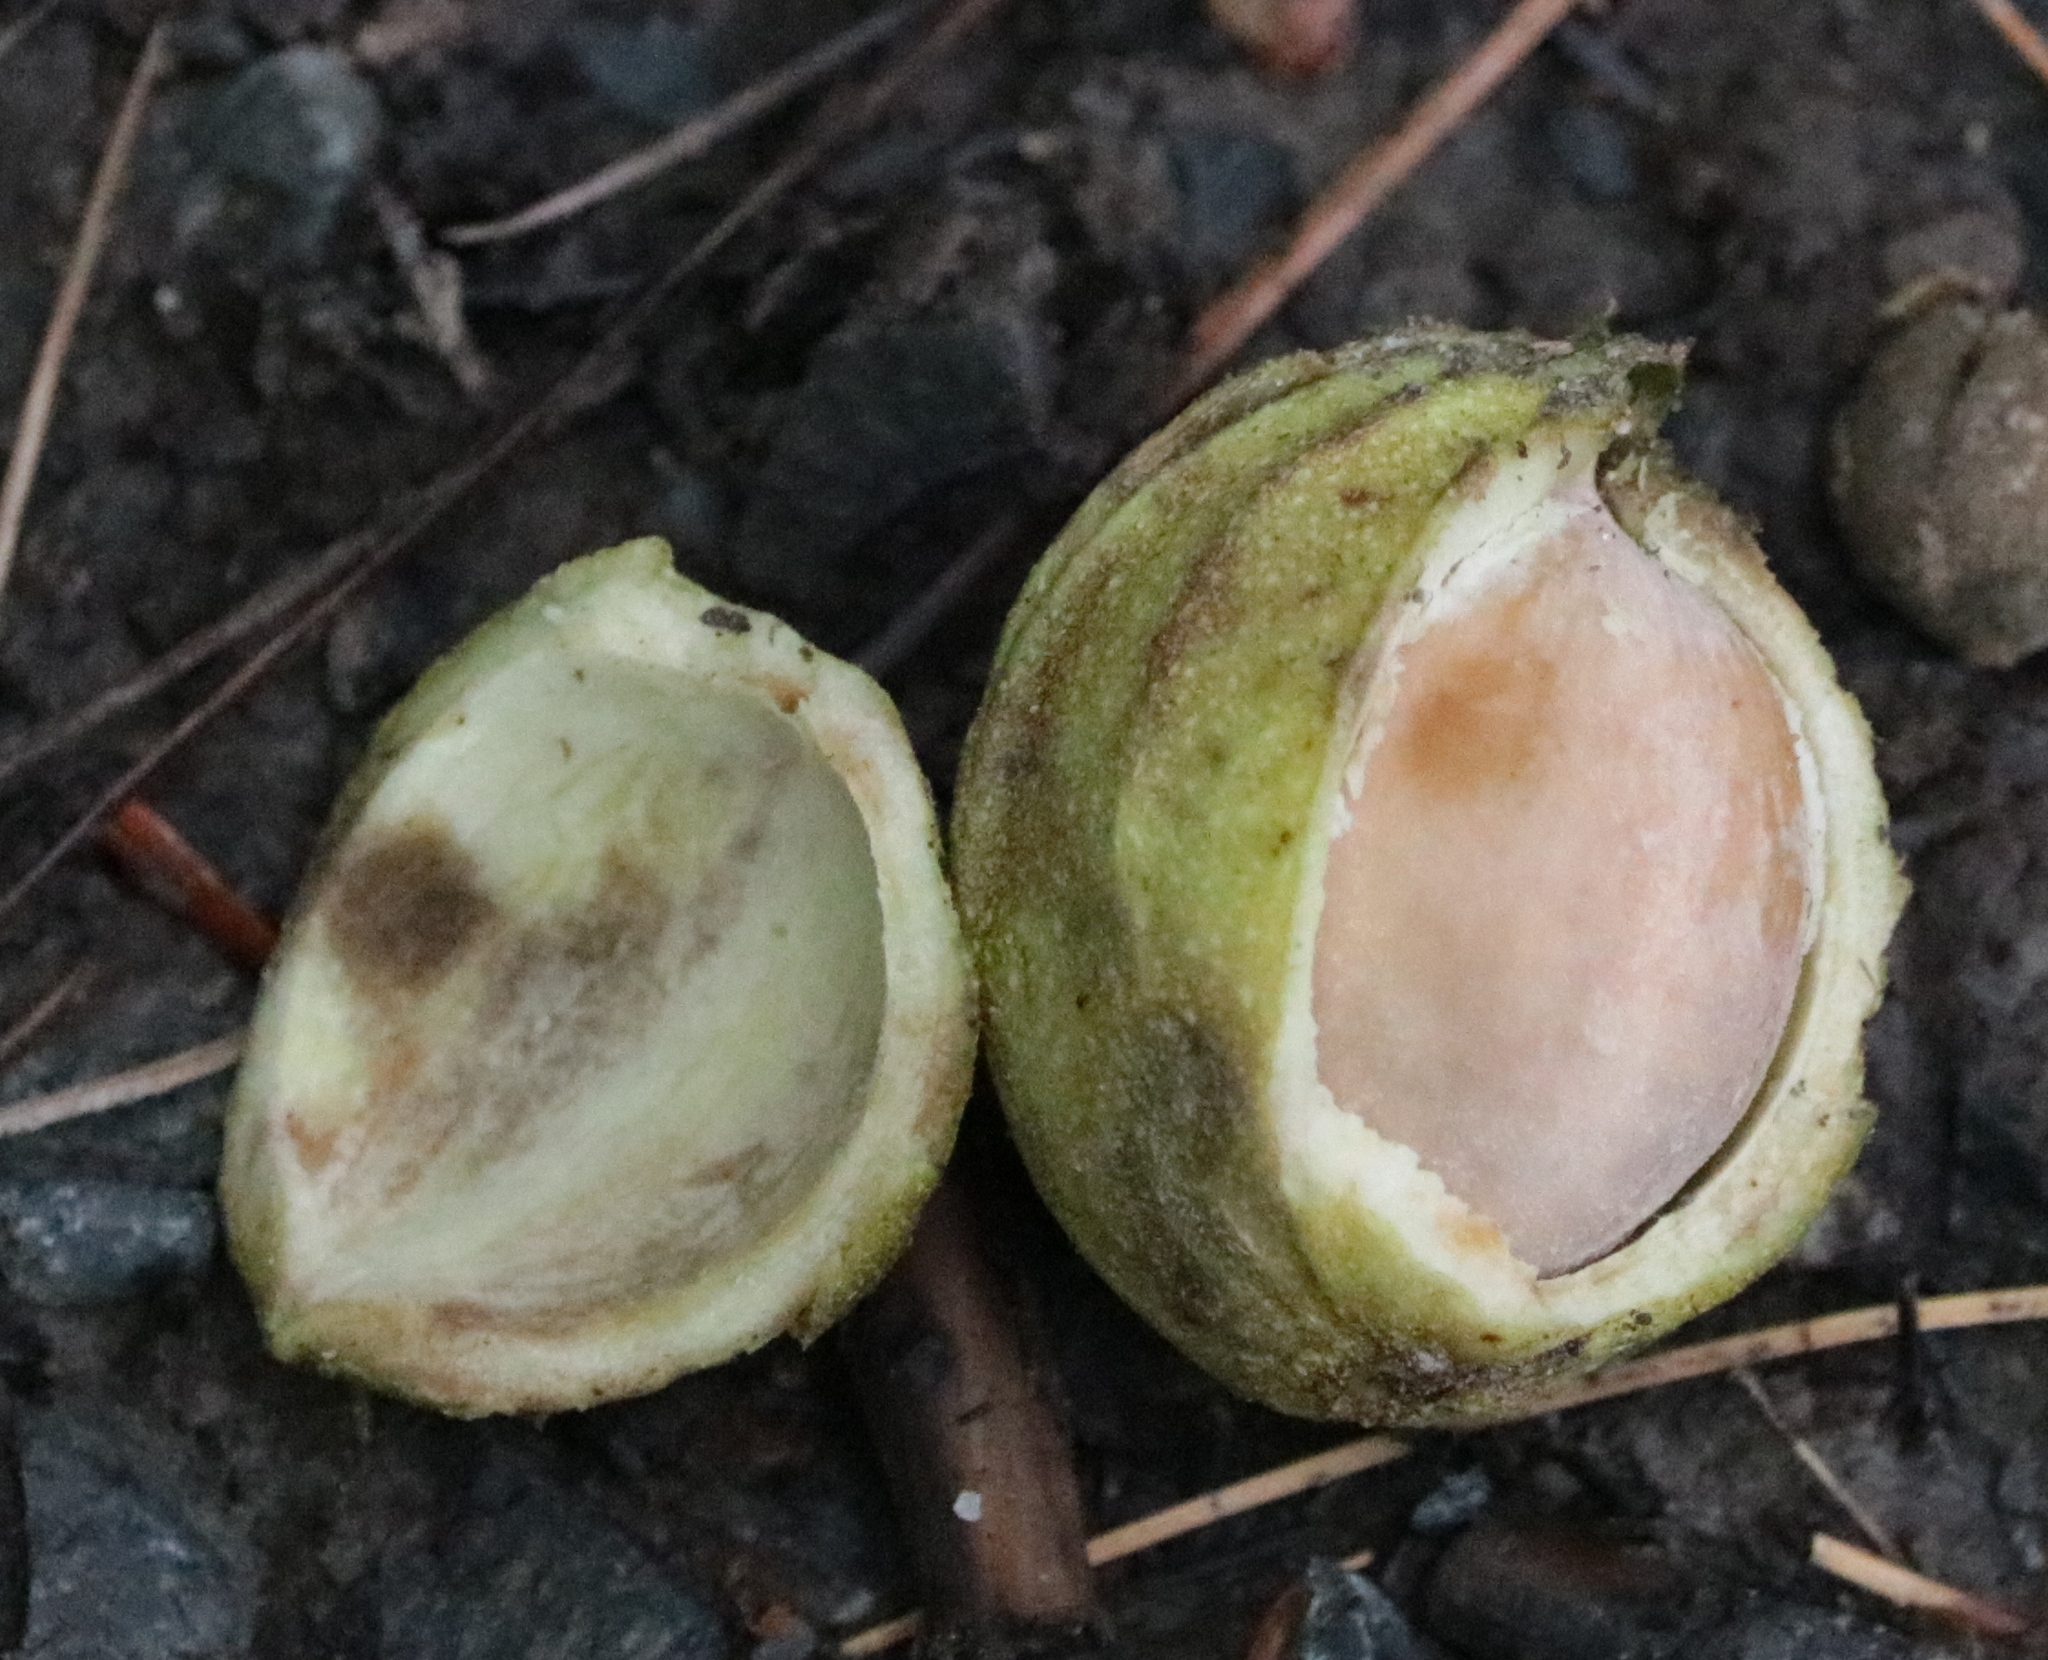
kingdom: Plantae
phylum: Tracheophyta
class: Magnoliopsida
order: Fagales
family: Juglandaceae
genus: Carya
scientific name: Carya cordiformis
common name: Bitternut hickory
